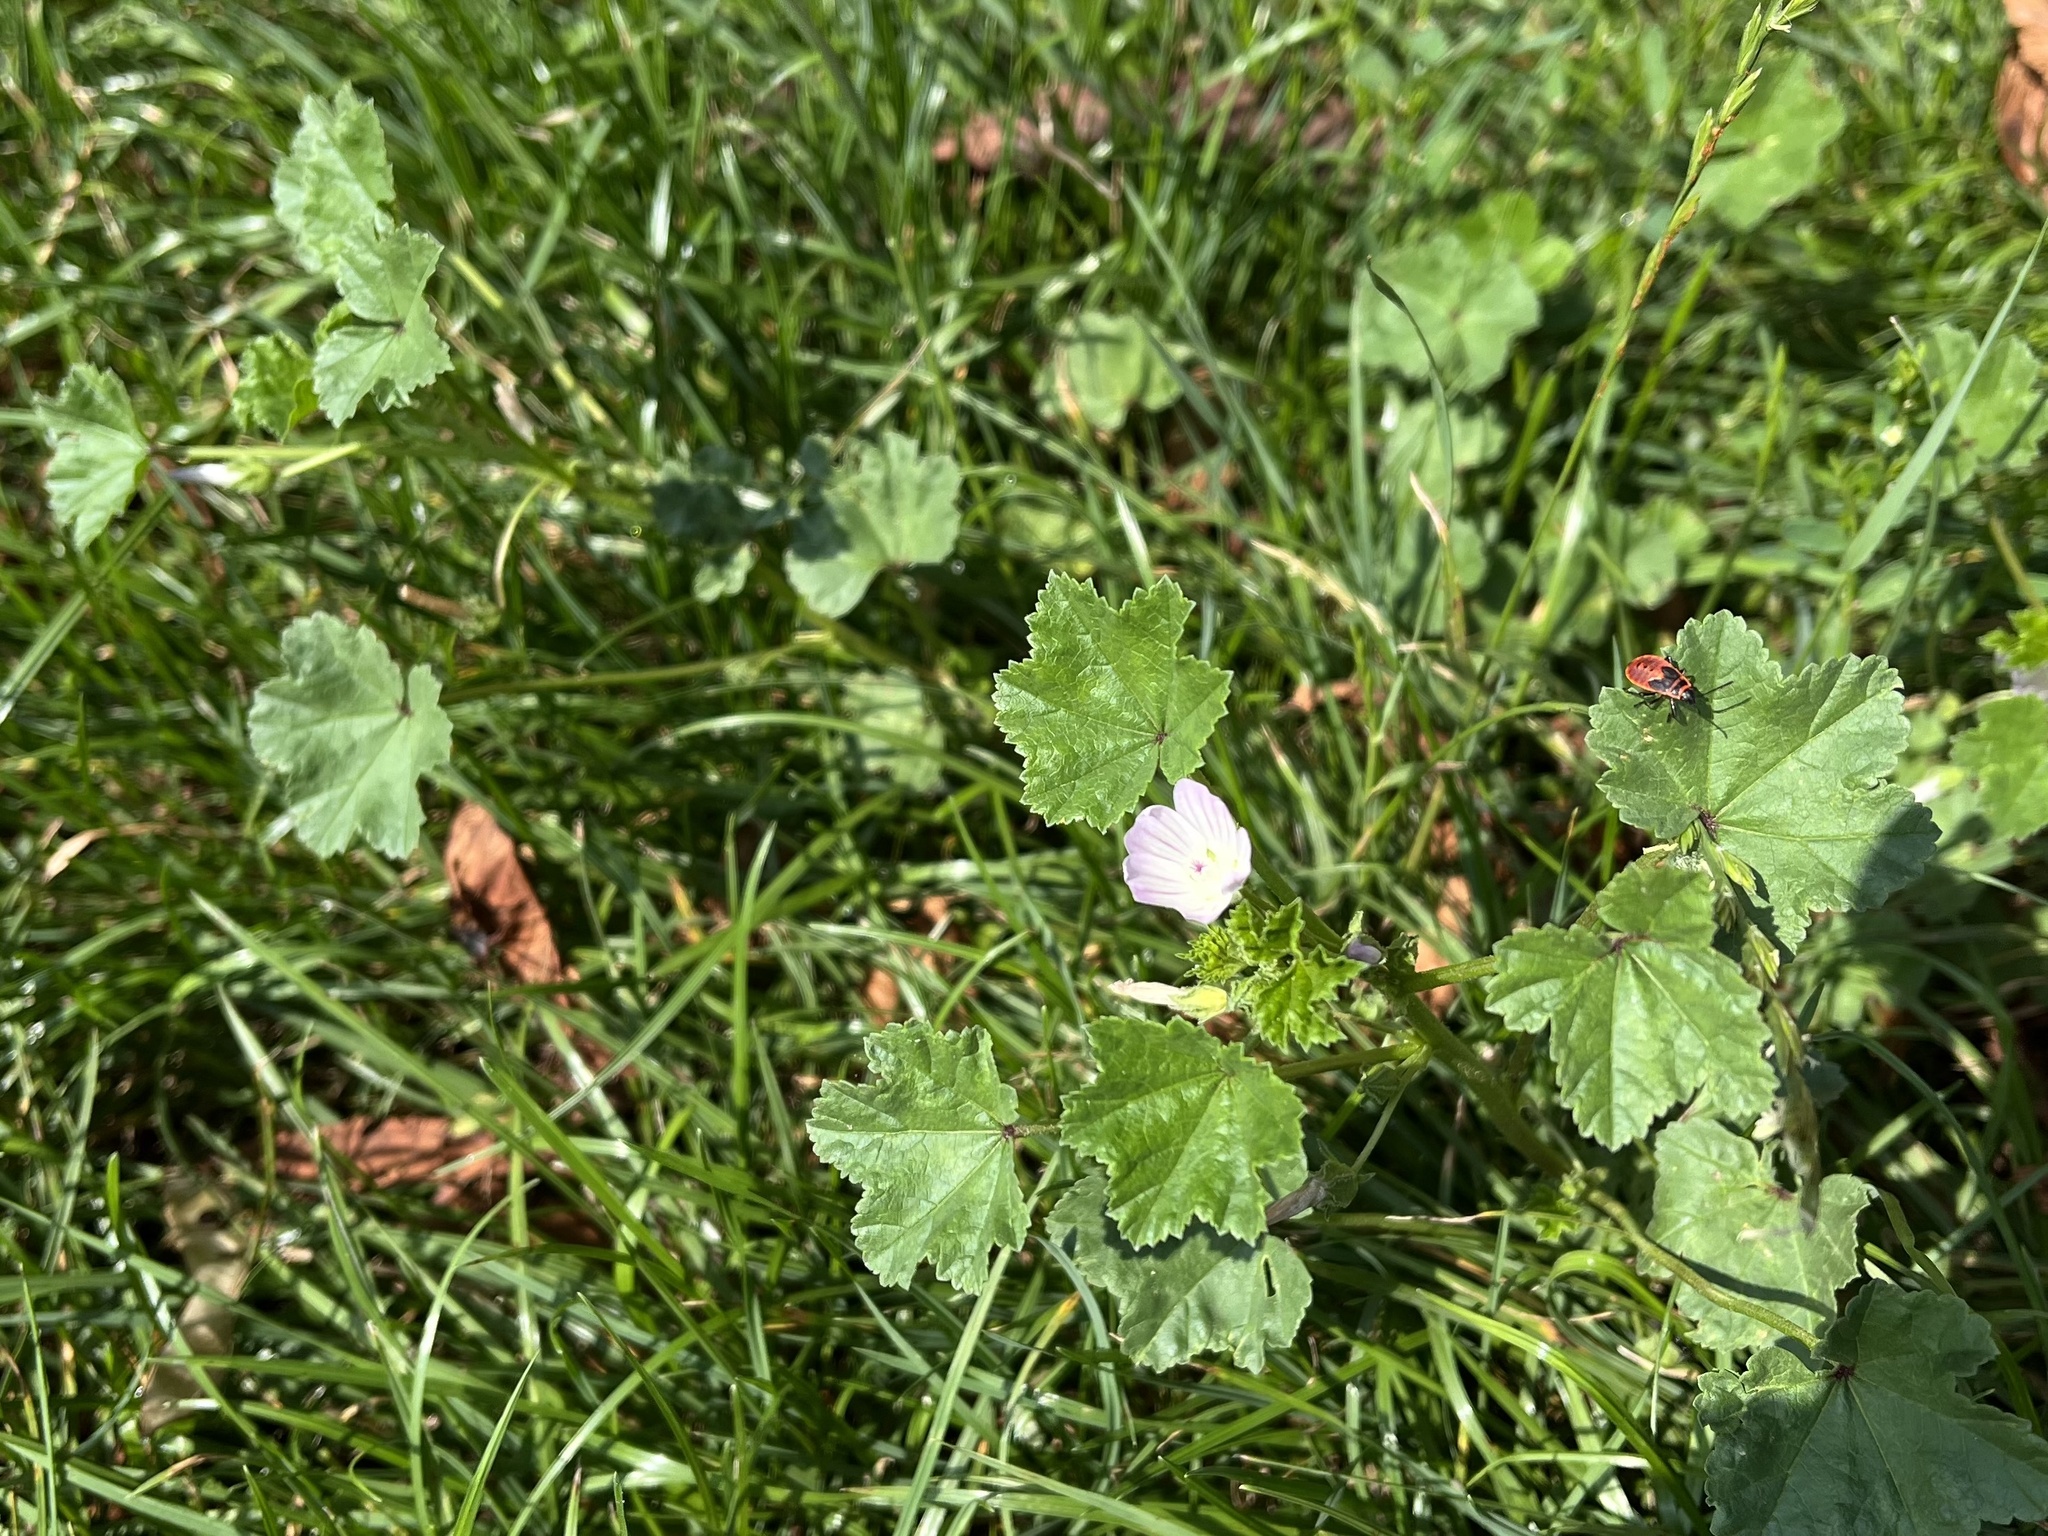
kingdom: Plantae
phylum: Tracheophyta
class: Magnoliopsida
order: Malvales
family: Malvaceae
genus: Malva
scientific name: Malva neglecta
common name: Common mallow
